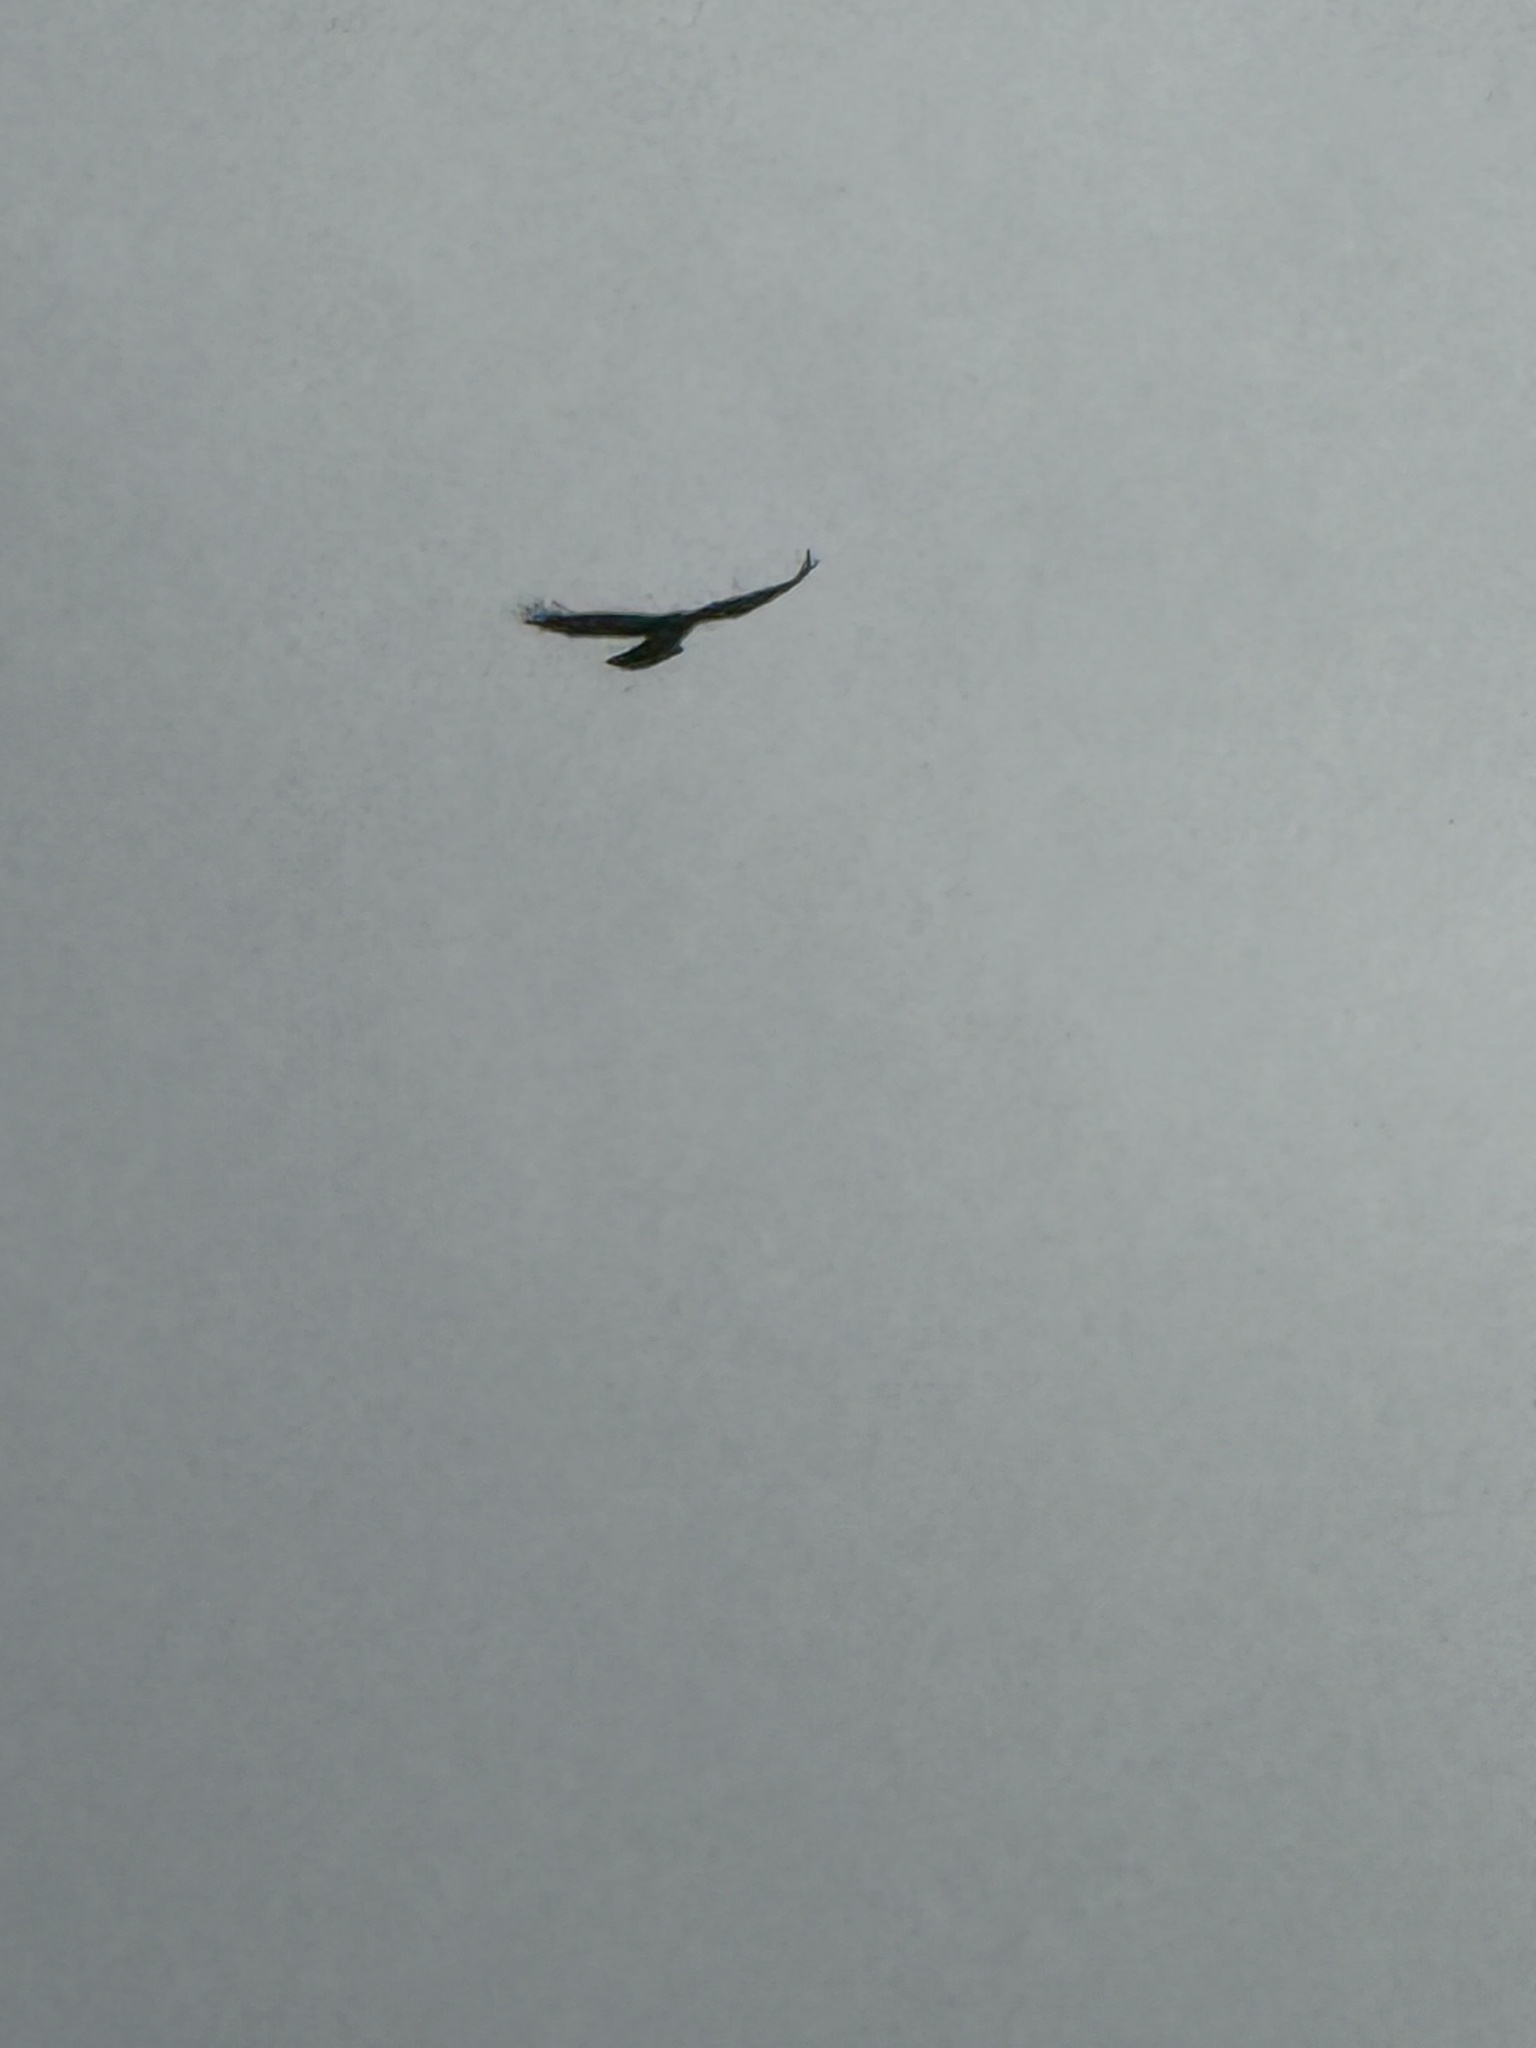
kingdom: Animalia
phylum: Chordata
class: Aves
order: Accipitriformes
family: Accipitridae
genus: Buteo
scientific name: Buteo jamaicensis
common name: Red-tailed hawk
